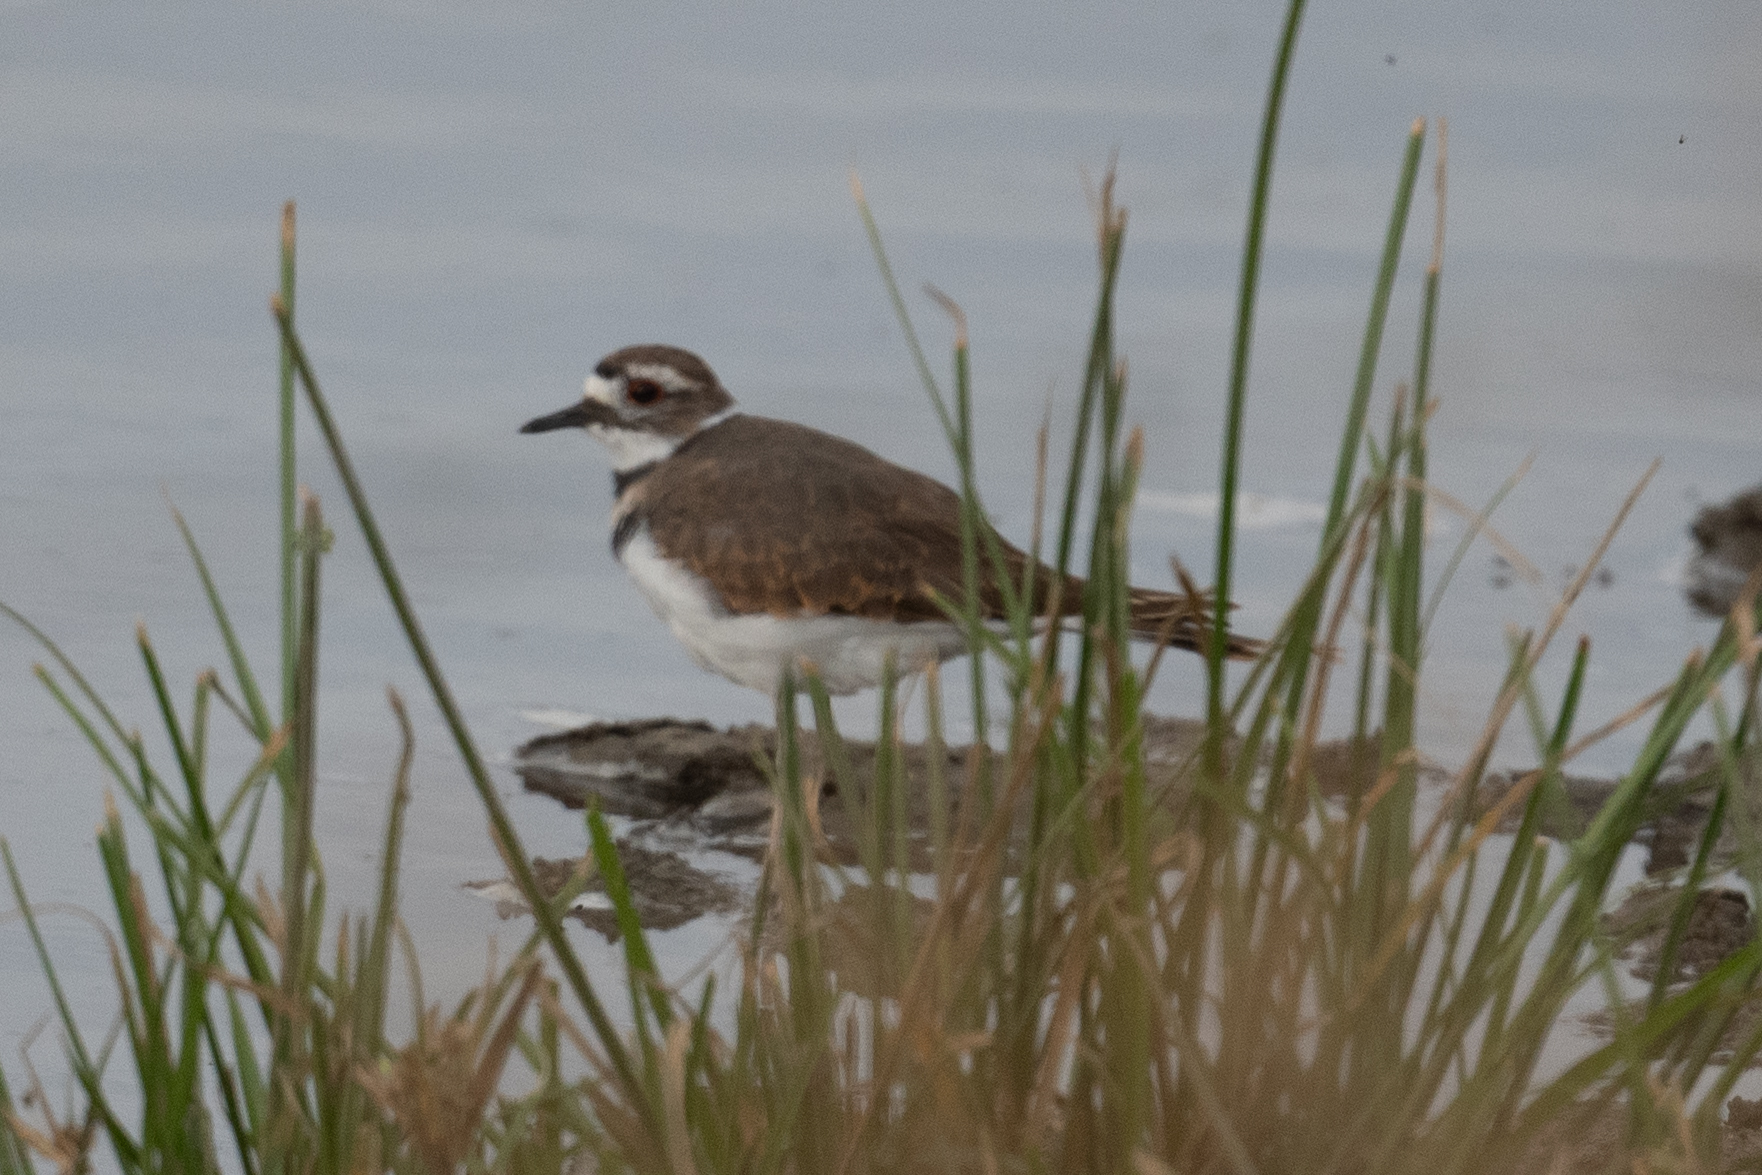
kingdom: Animalia
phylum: Chordata
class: Aves
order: Charadriiformes
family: Charadriidae
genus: Charadrius
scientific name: Charadrius vociferus
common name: Killdeer
